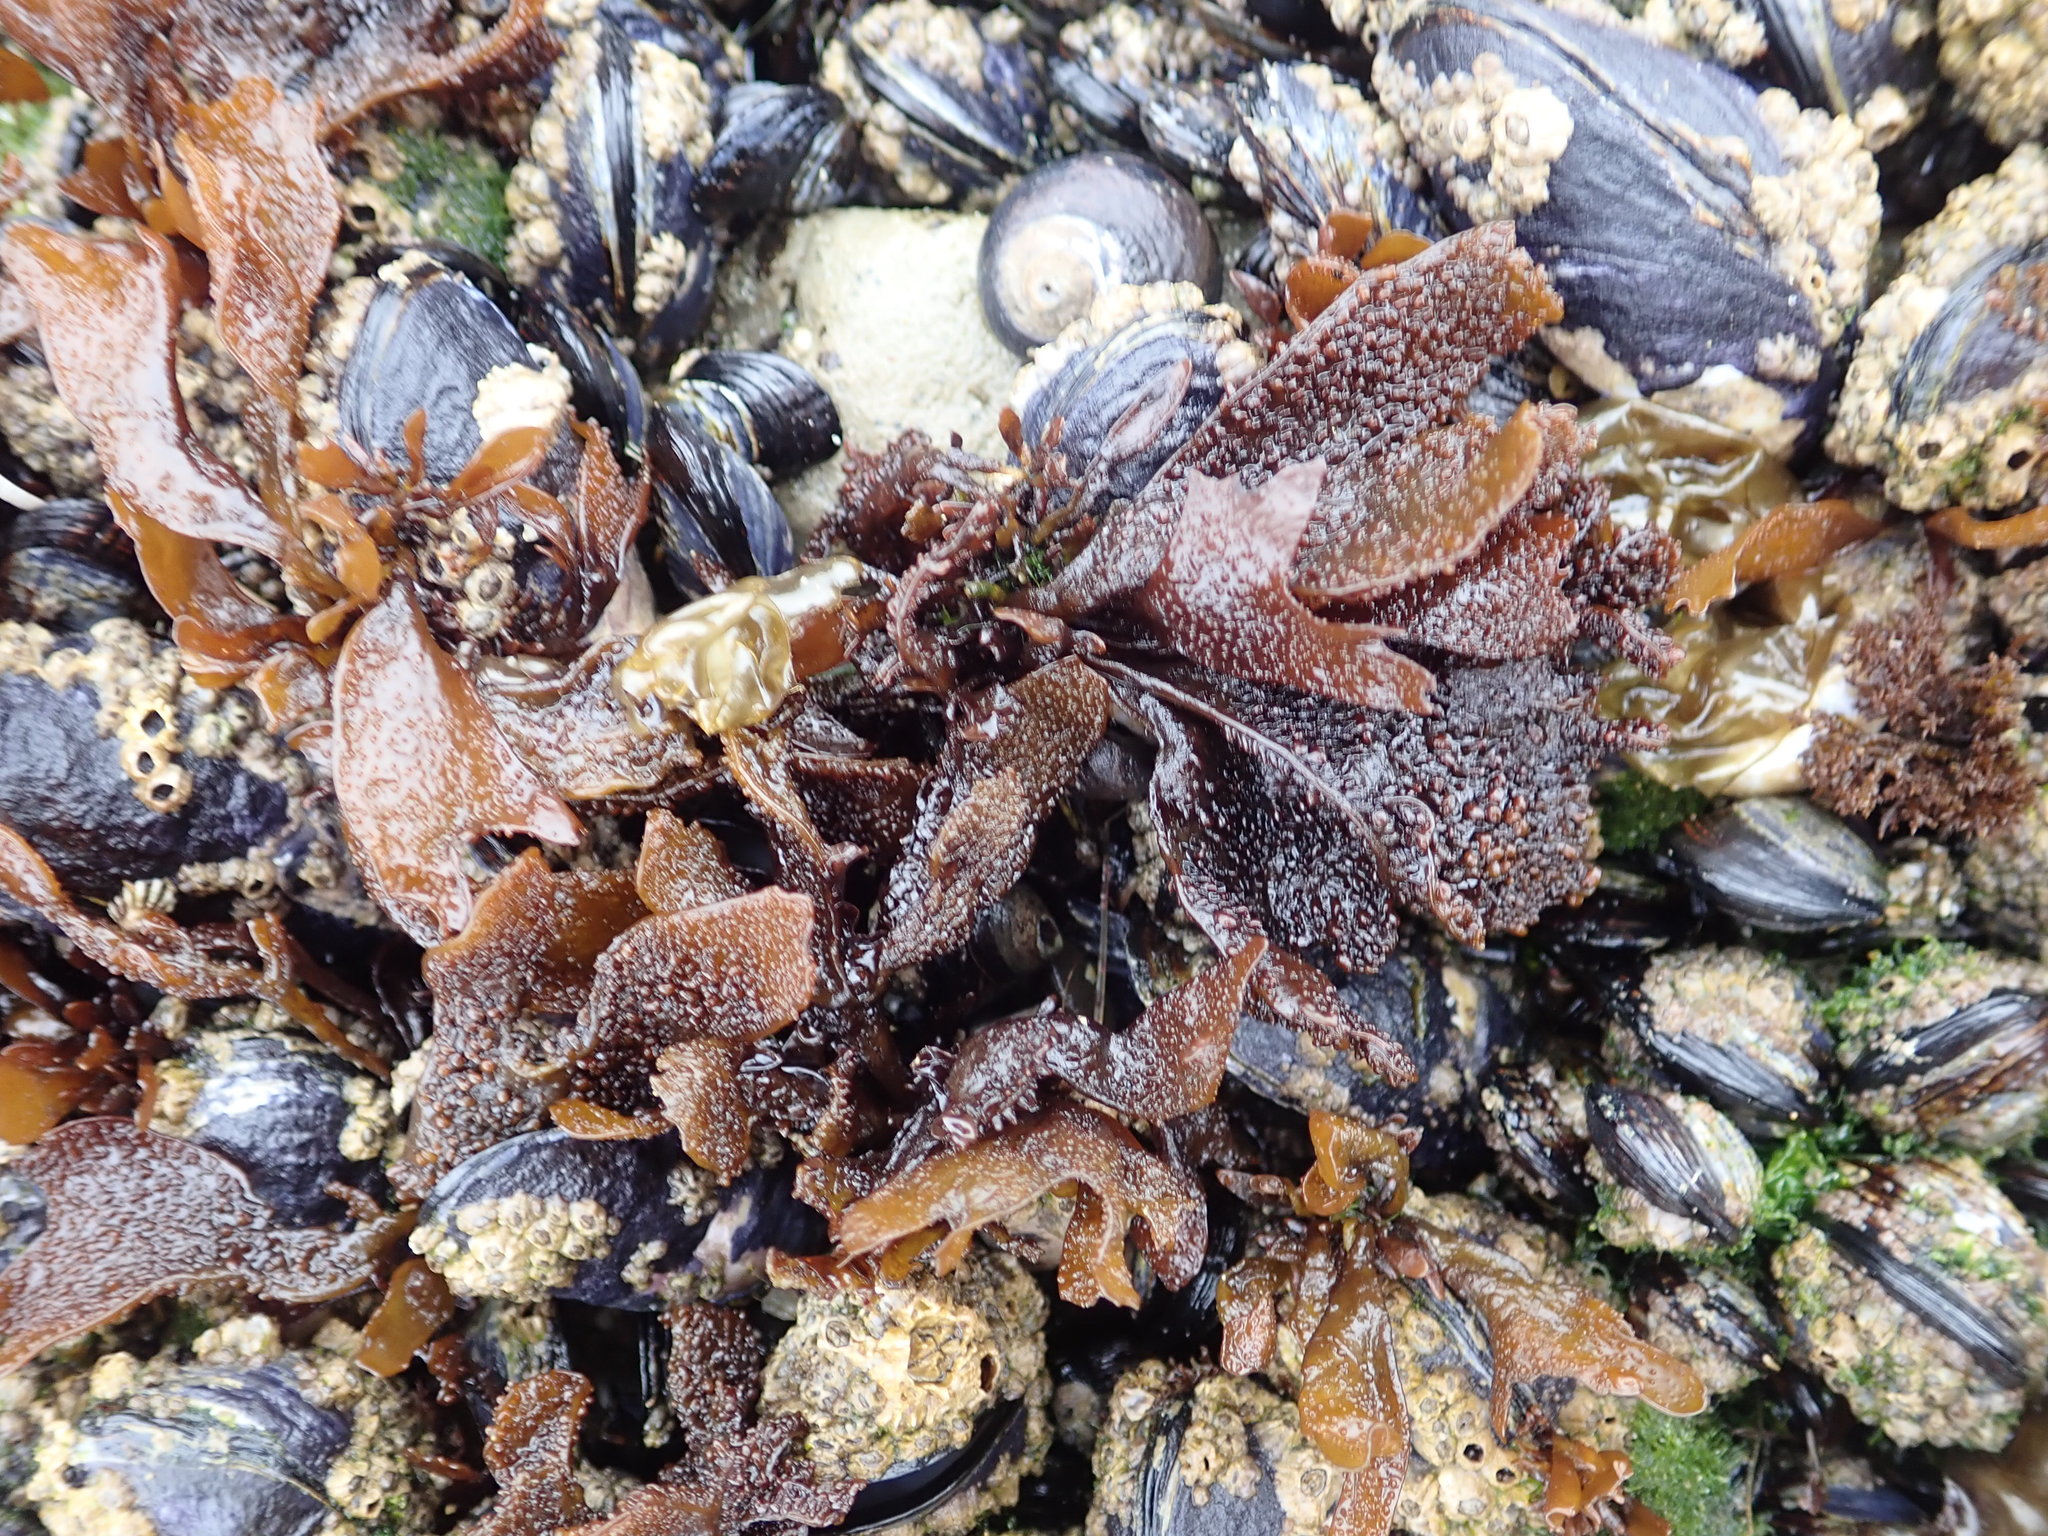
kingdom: Plantae
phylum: Rhodophyta
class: Florideophyceae
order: Gigartinales
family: Phyllophoraceae
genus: Mastocarpus
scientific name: Mastocarpus papillatus
